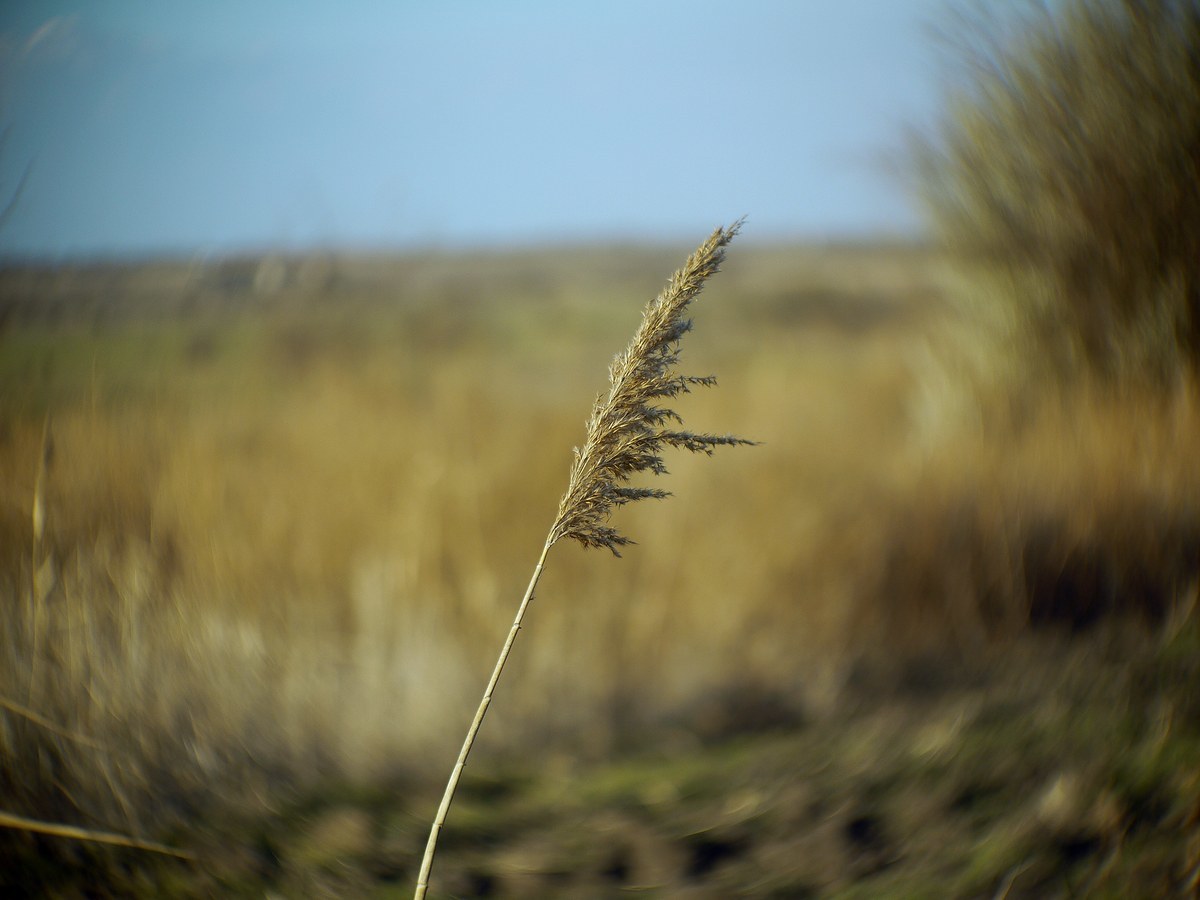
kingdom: Plantae
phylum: Tracheophyta
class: Liliopsida
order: Poales
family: Poaceae
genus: Phragmites
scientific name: Phragmites australis
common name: Common reed
